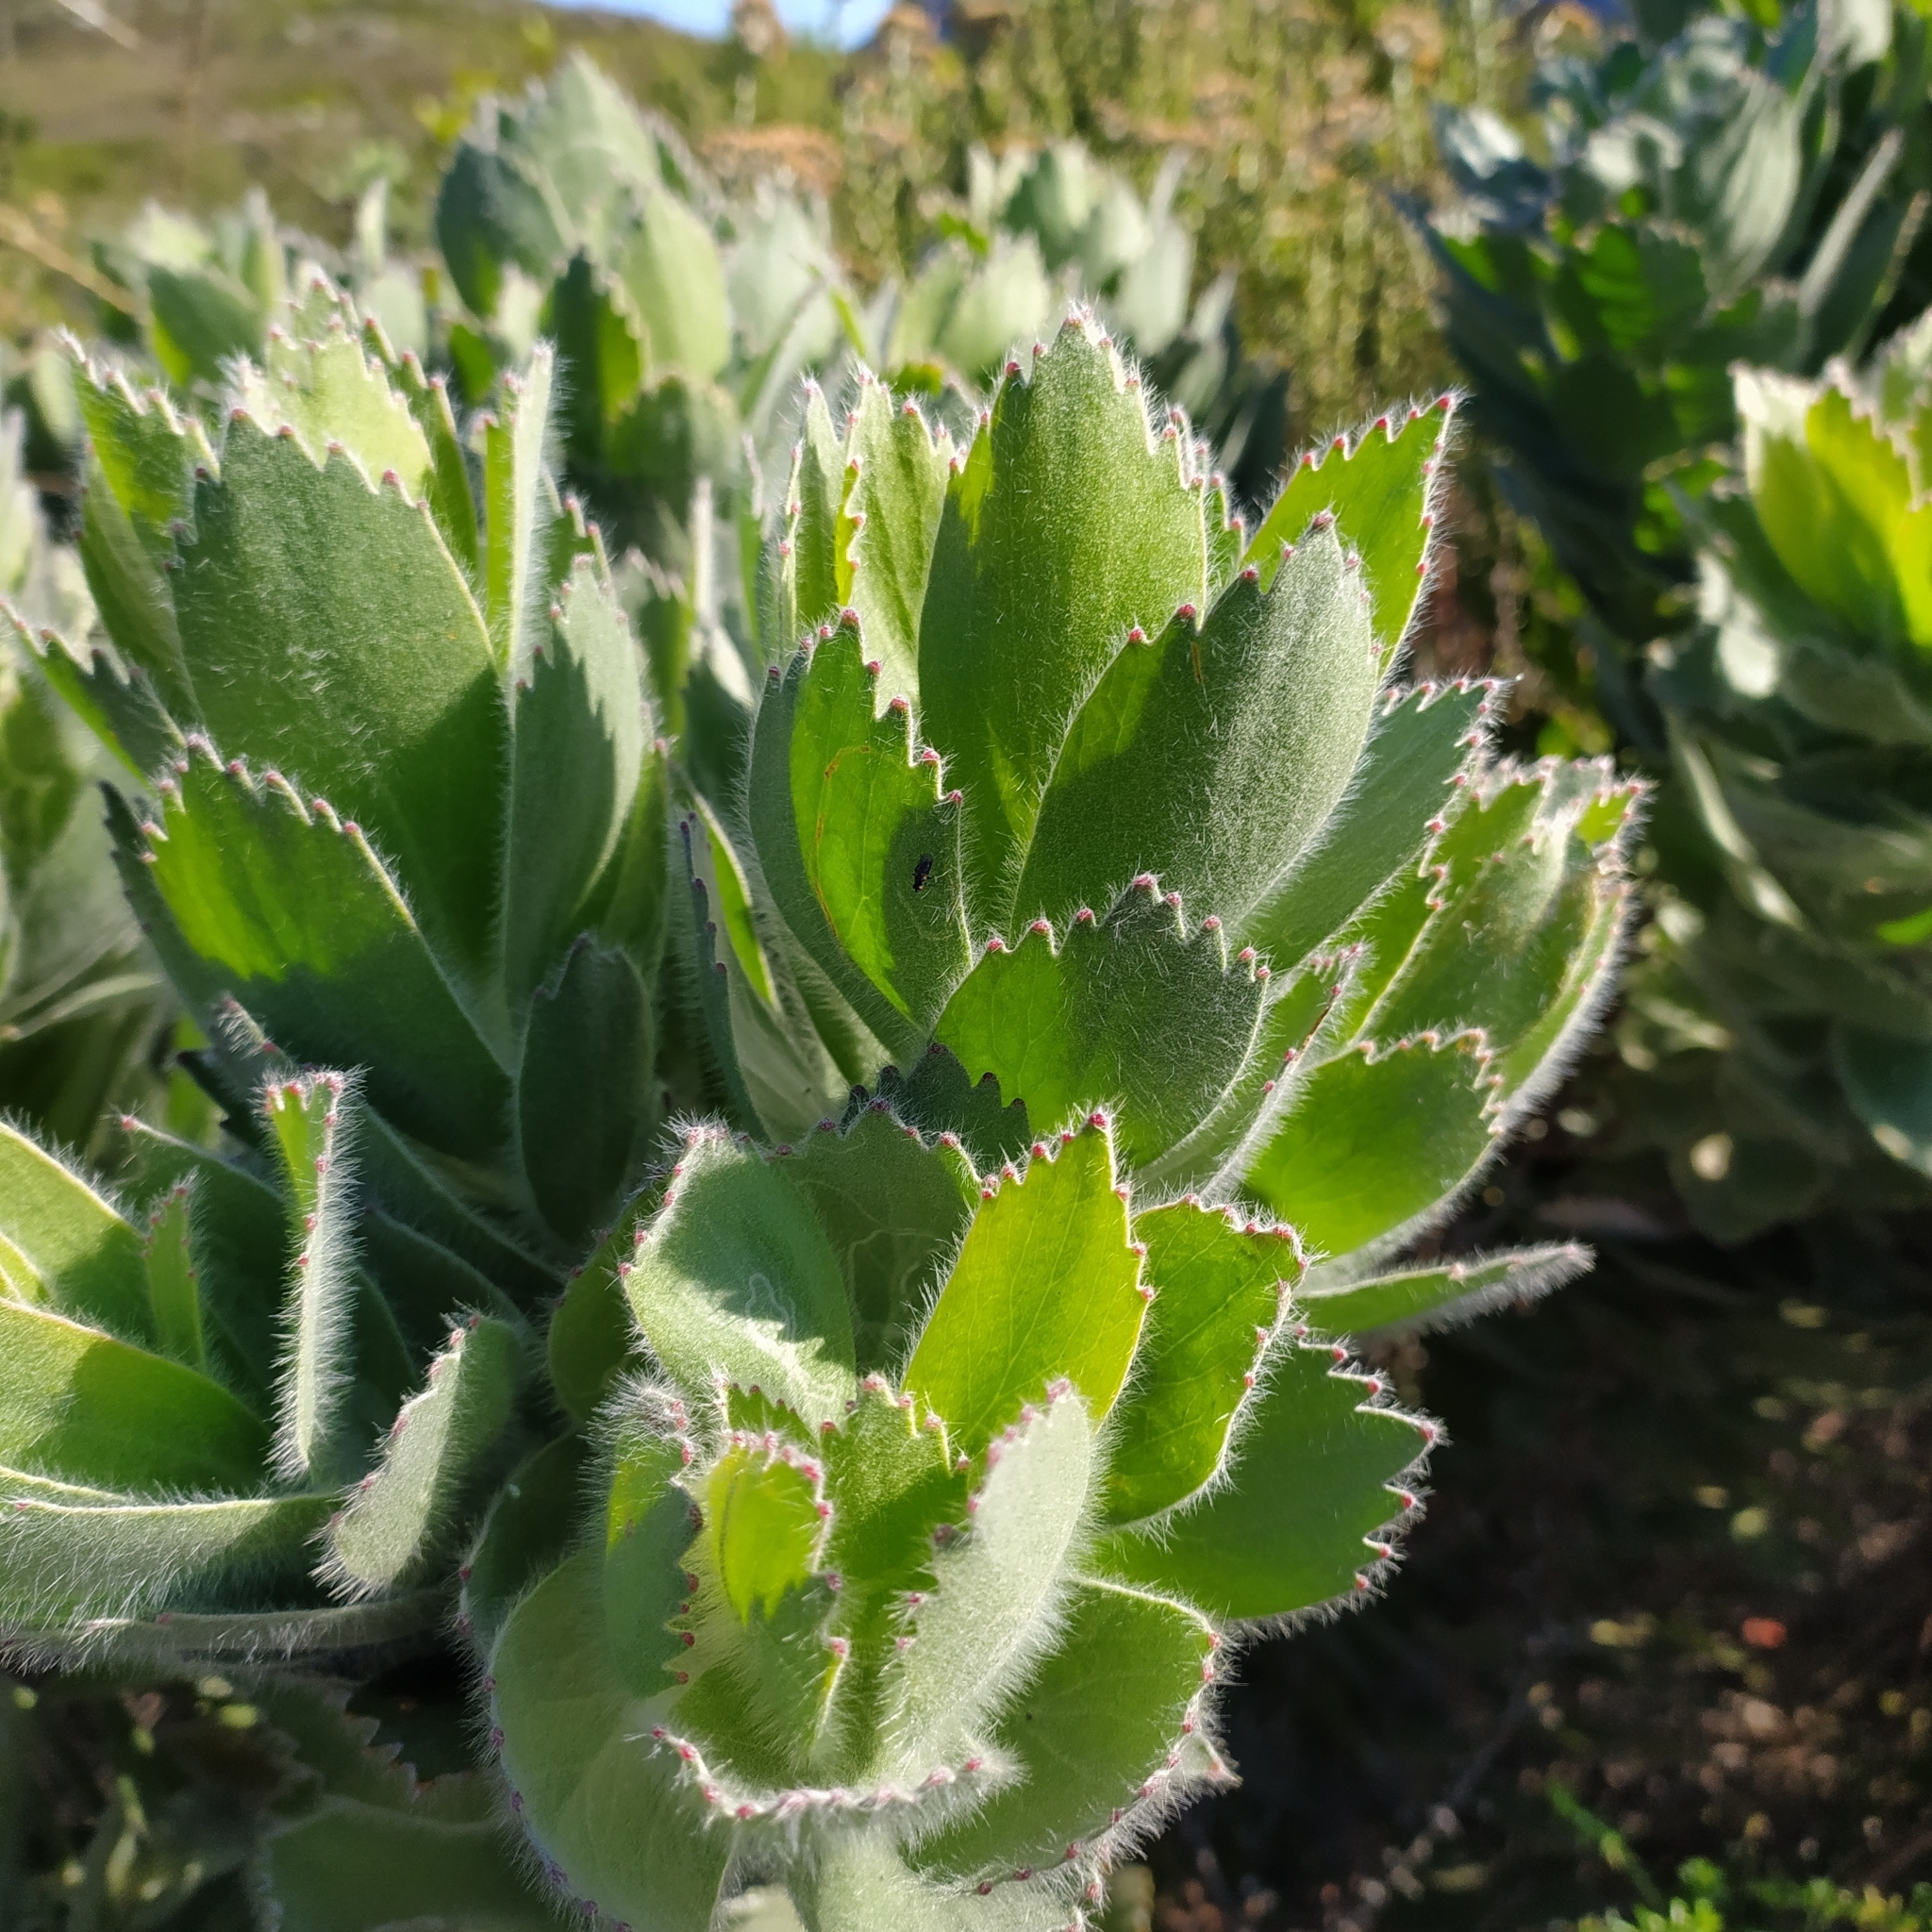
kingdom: Plantae
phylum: Tracheophyta
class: Magnoliopsida
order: Proteales
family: Proteaceae
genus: Leucospermum
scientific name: Leucospermum conocarpodendron
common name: Tree pincushion
